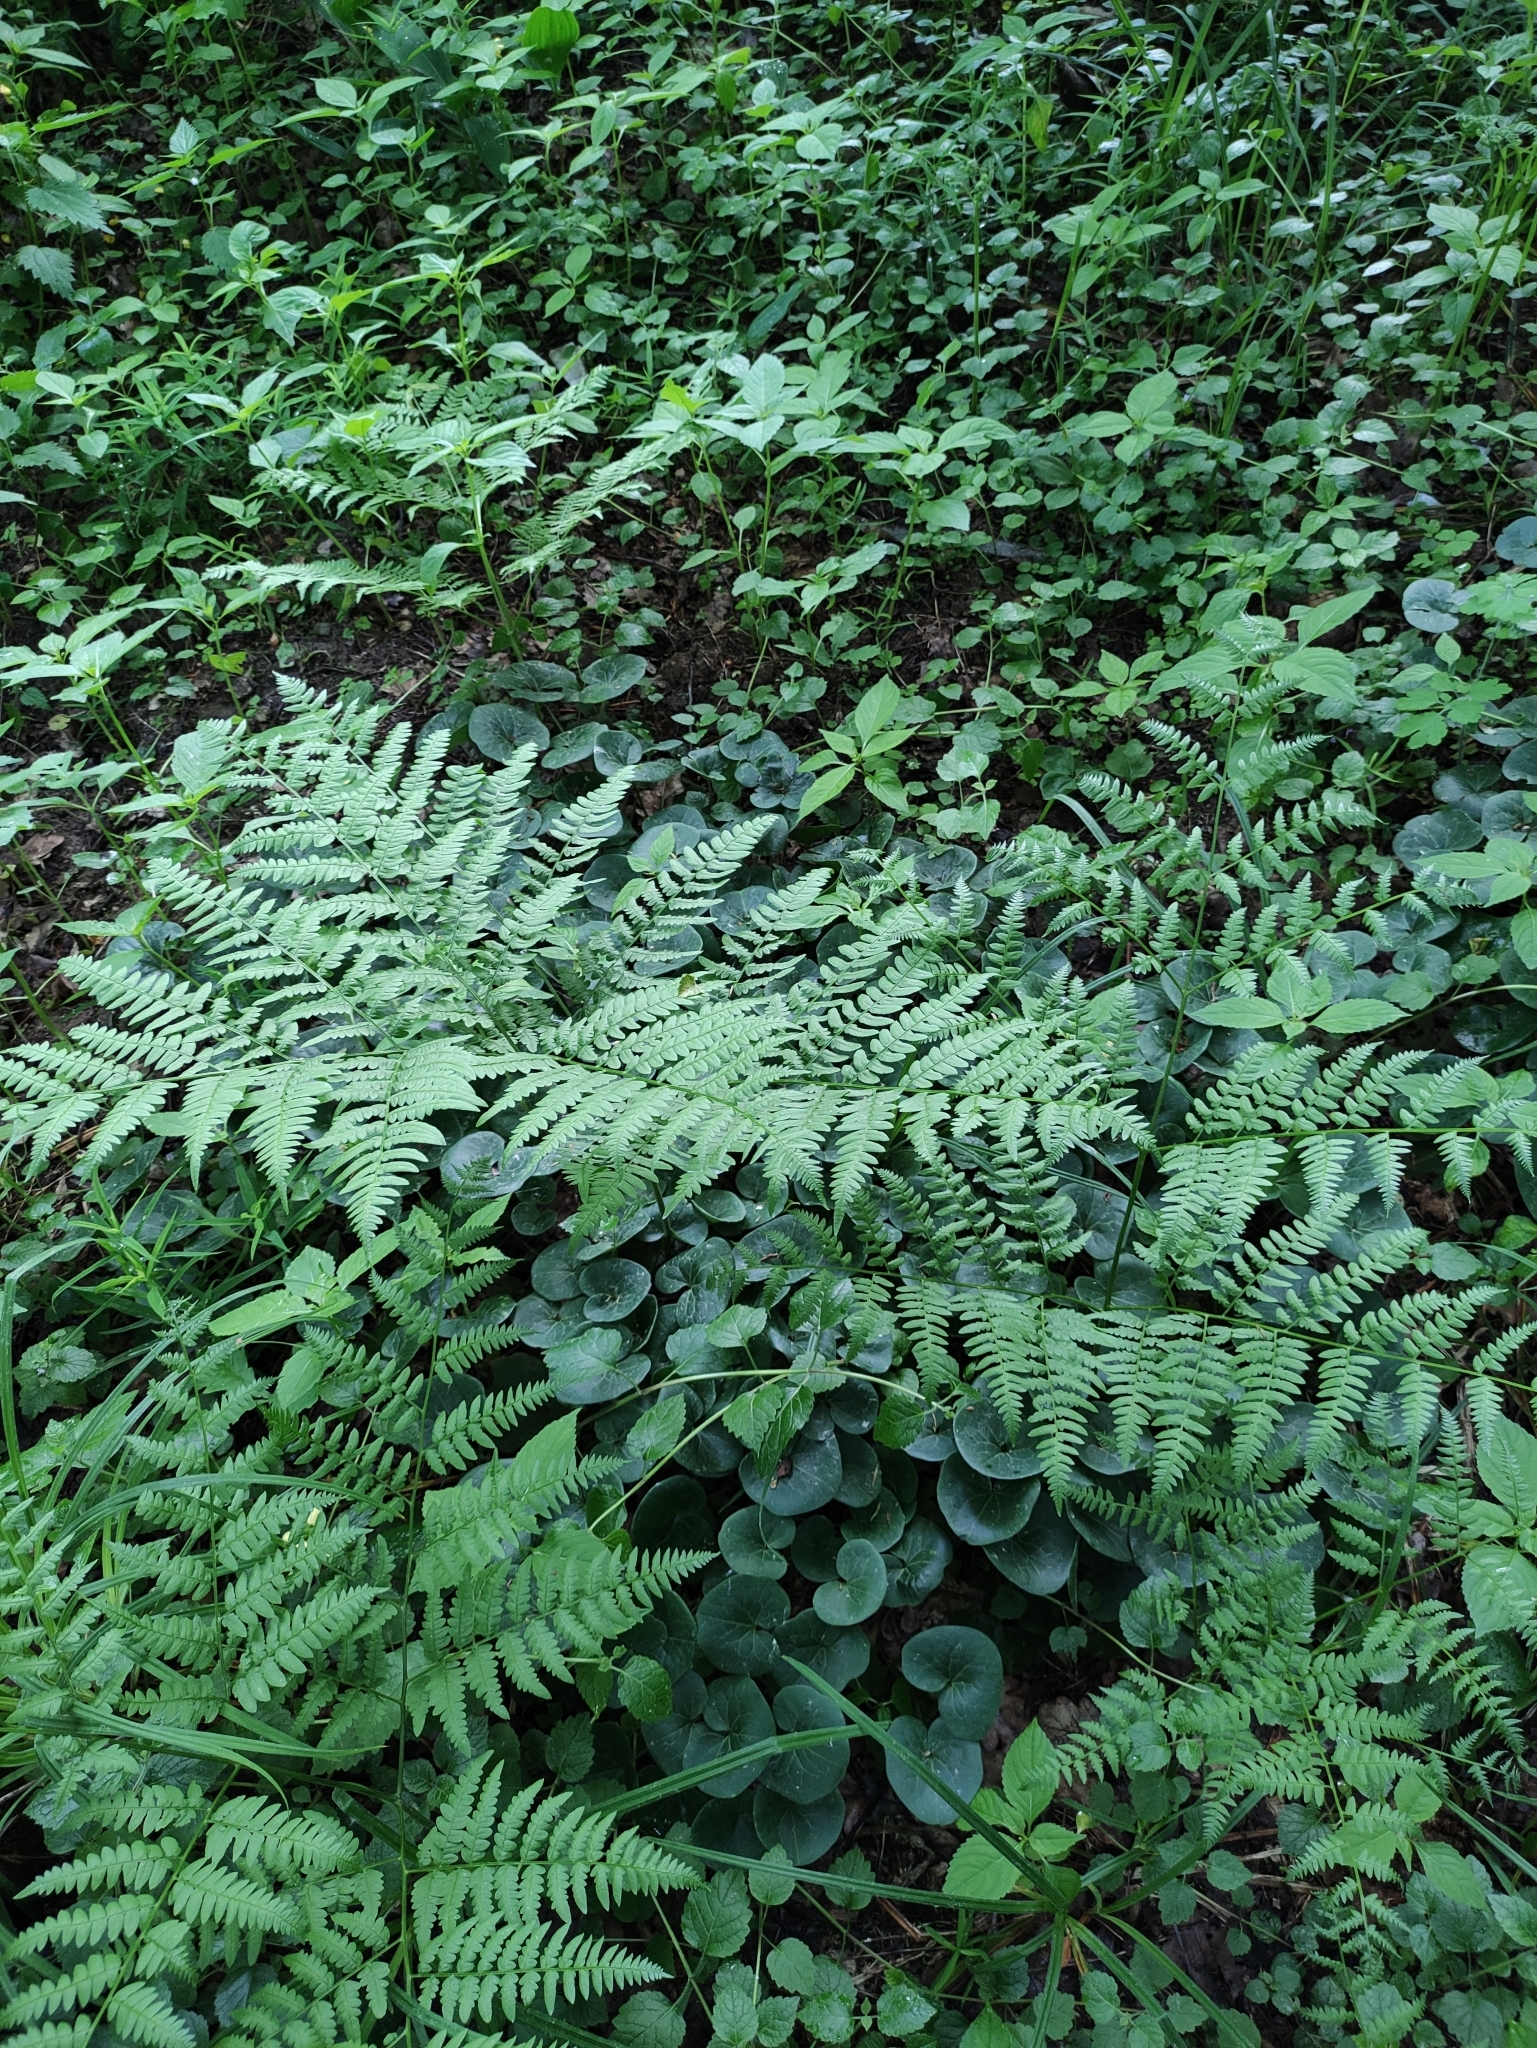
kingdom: Plantae
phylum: Tracheophyta
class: Polypodiopsida
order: Polypodiales
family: Dennstaedtiaceae
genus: Pteridium
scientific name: Pteridium aquilinum
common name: Bracken
